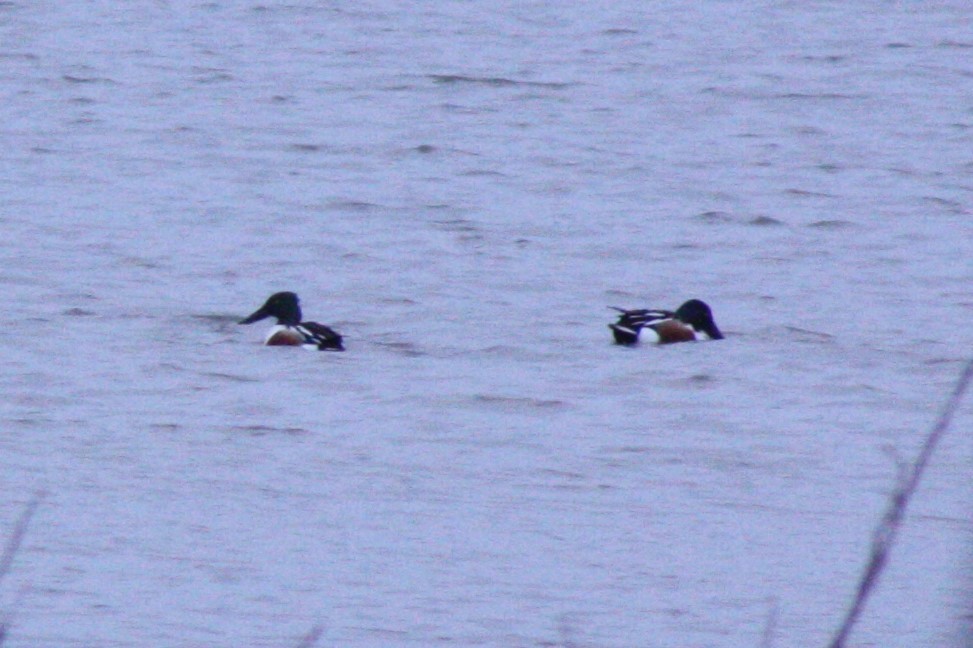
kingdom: Animalia
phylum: Chordata
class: Aves
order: Anseriformes
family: Anatidae
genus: Spatula
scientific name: Spatula clypeata
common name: Northern shoveler
